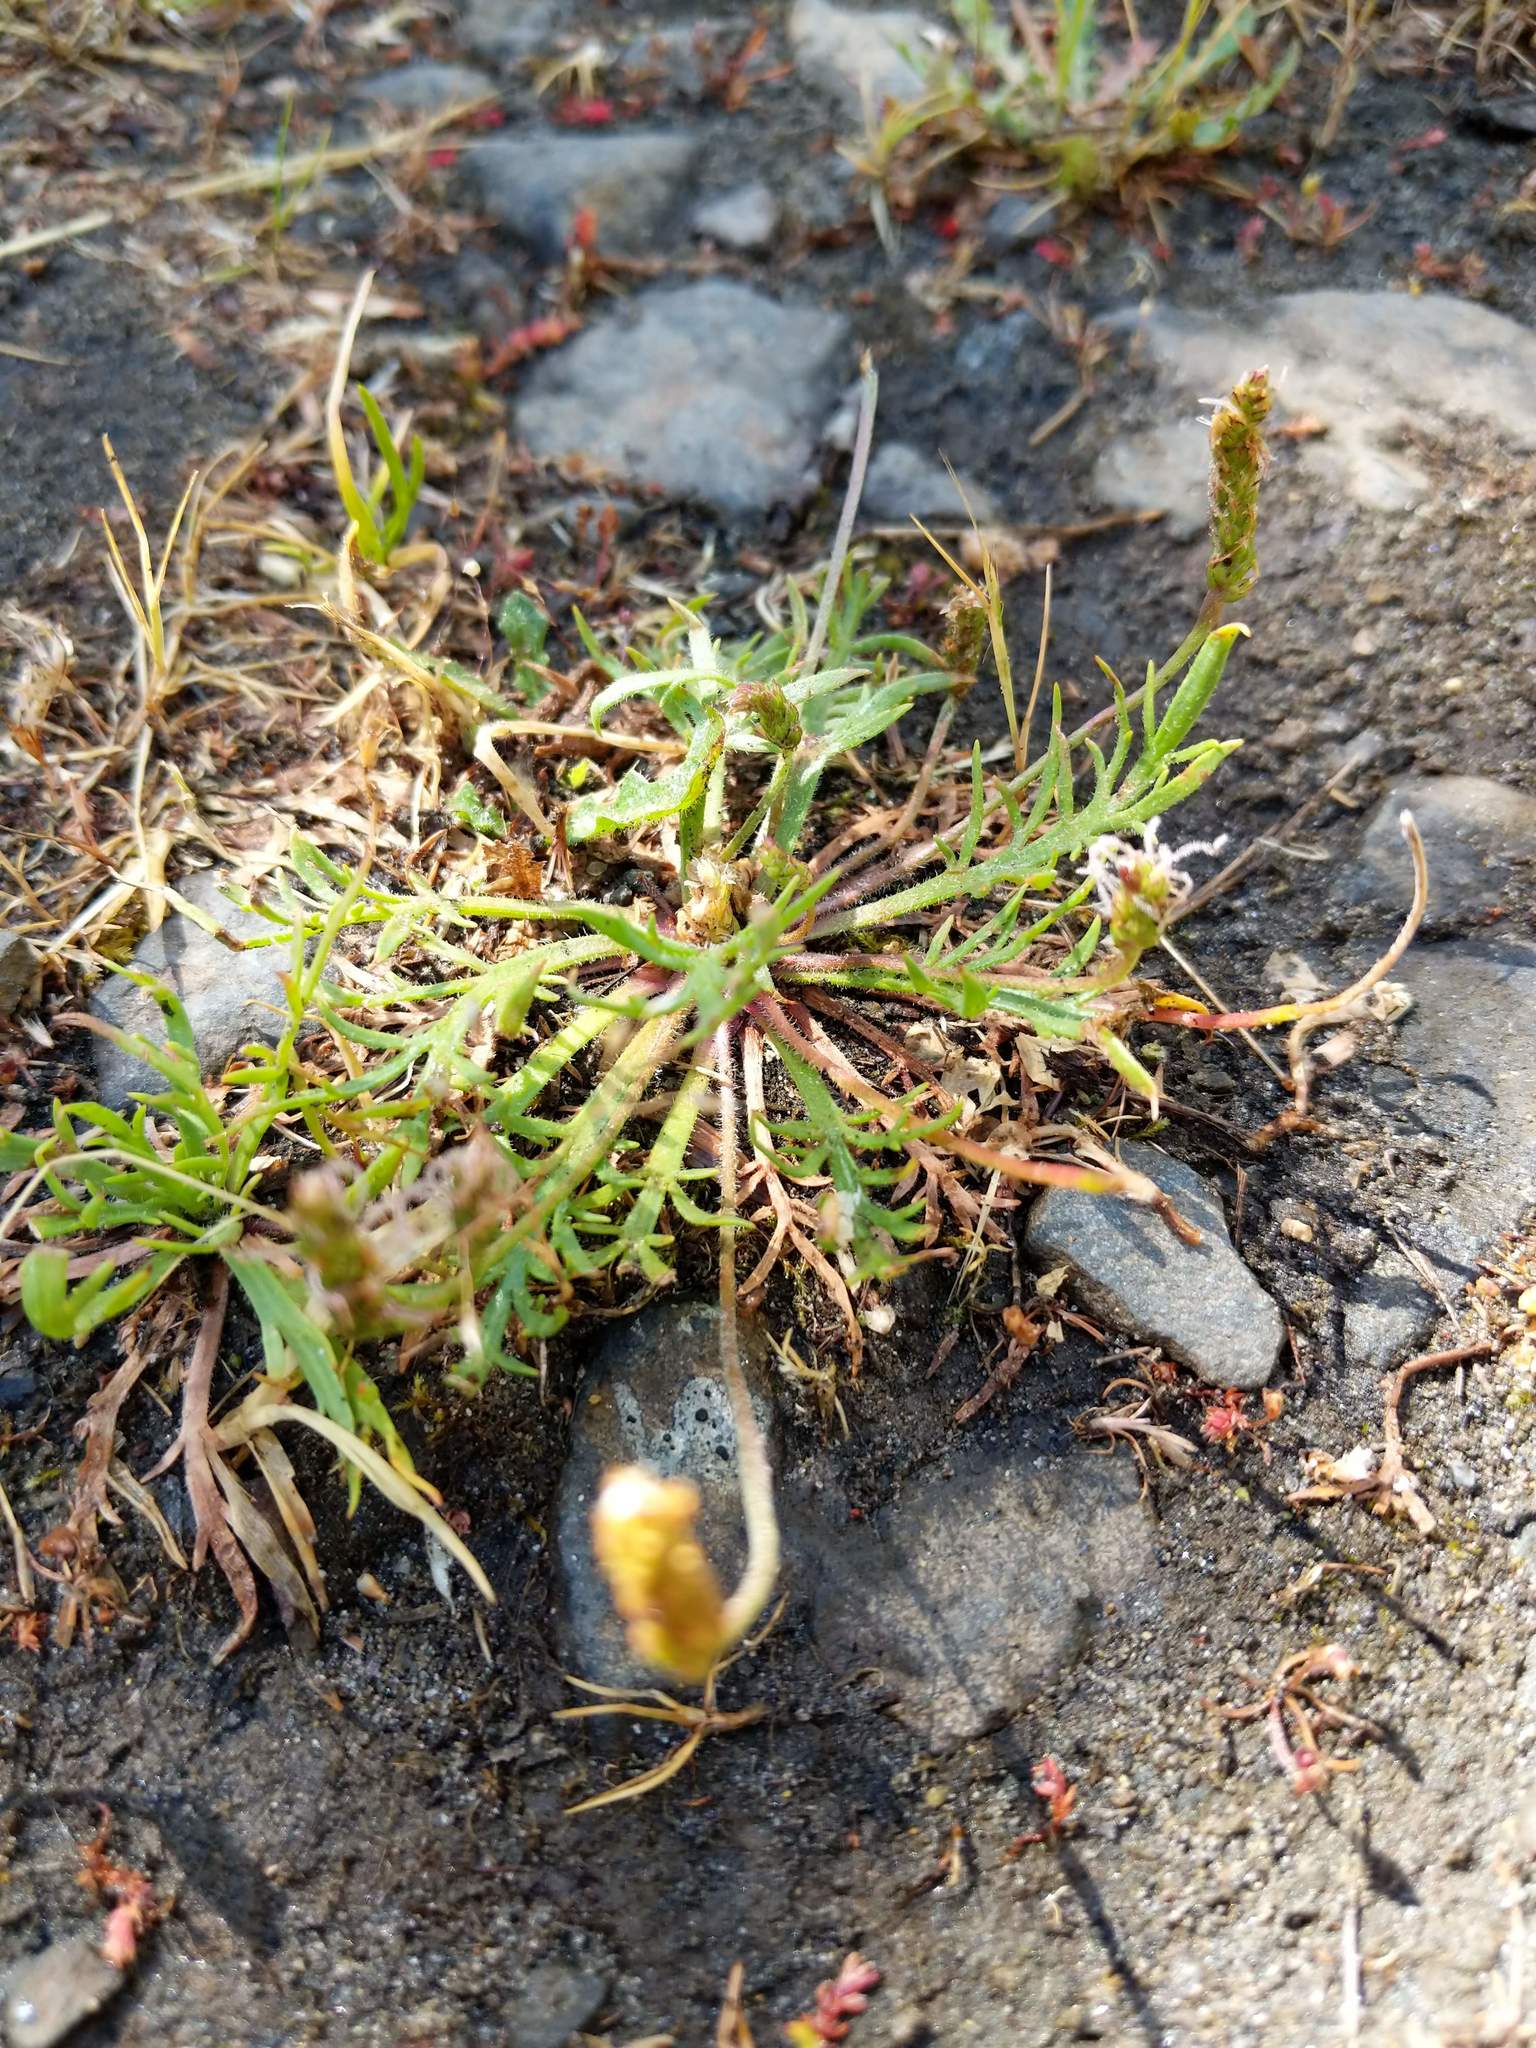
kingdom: Plantae
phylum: Tracheophyta
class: Magnoliopsida
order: Lamiales
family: Plantaginaceae
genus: Plantago
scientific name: Plantago coronopus
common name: Buck's-horn plantain
